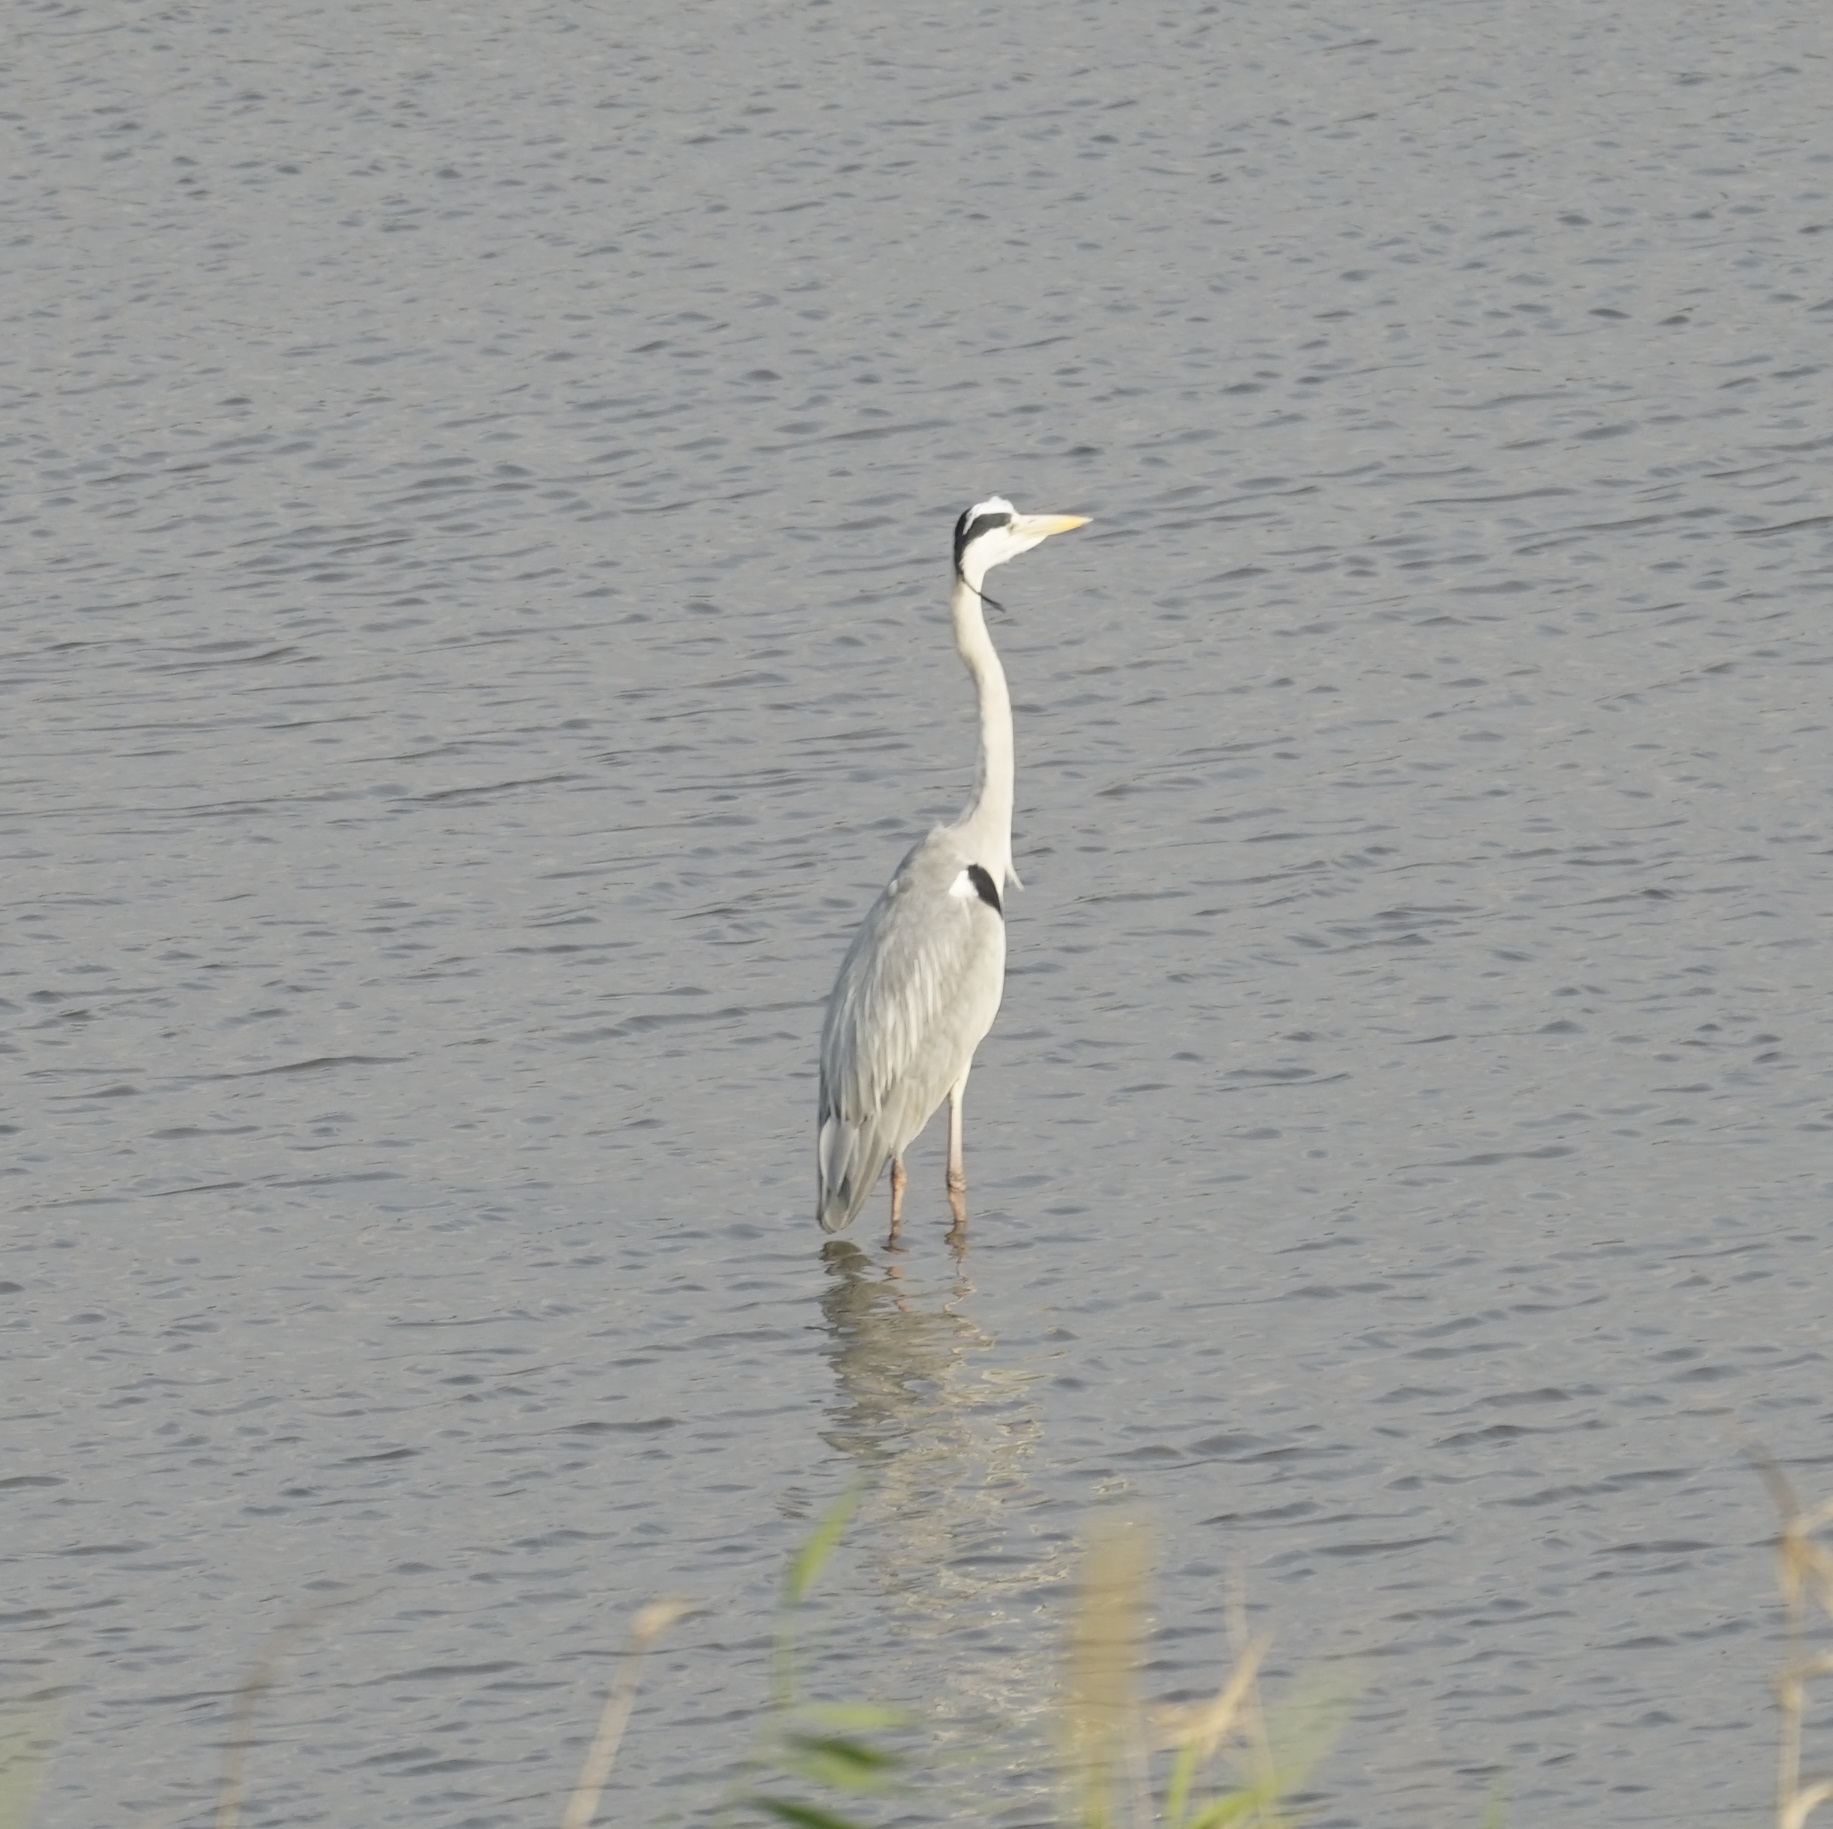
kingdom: Animalia
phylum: Chordata
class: Aves
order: Pelecaniformes
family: Ardeidae
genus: Ardea
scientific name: Ardea cinerea
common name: Grey heron
